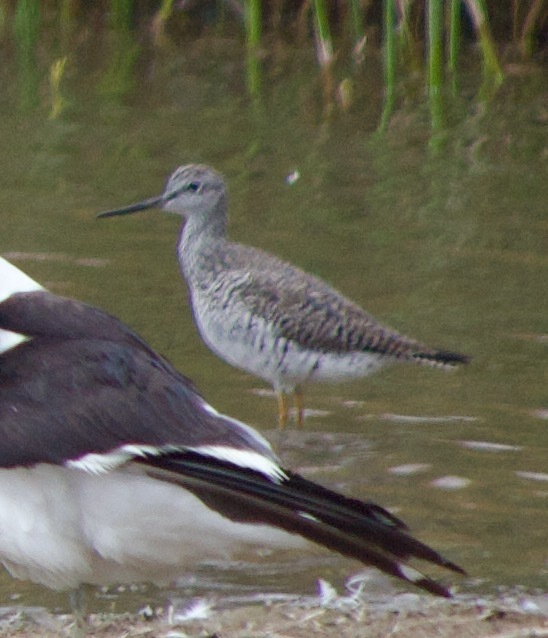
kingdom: Animalia
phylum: Chordata
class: Aves
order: Charadriiformes
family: Scolopacidae
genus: Tringa
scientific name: Tringa melanoleuca
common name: Greater yellowlegs
